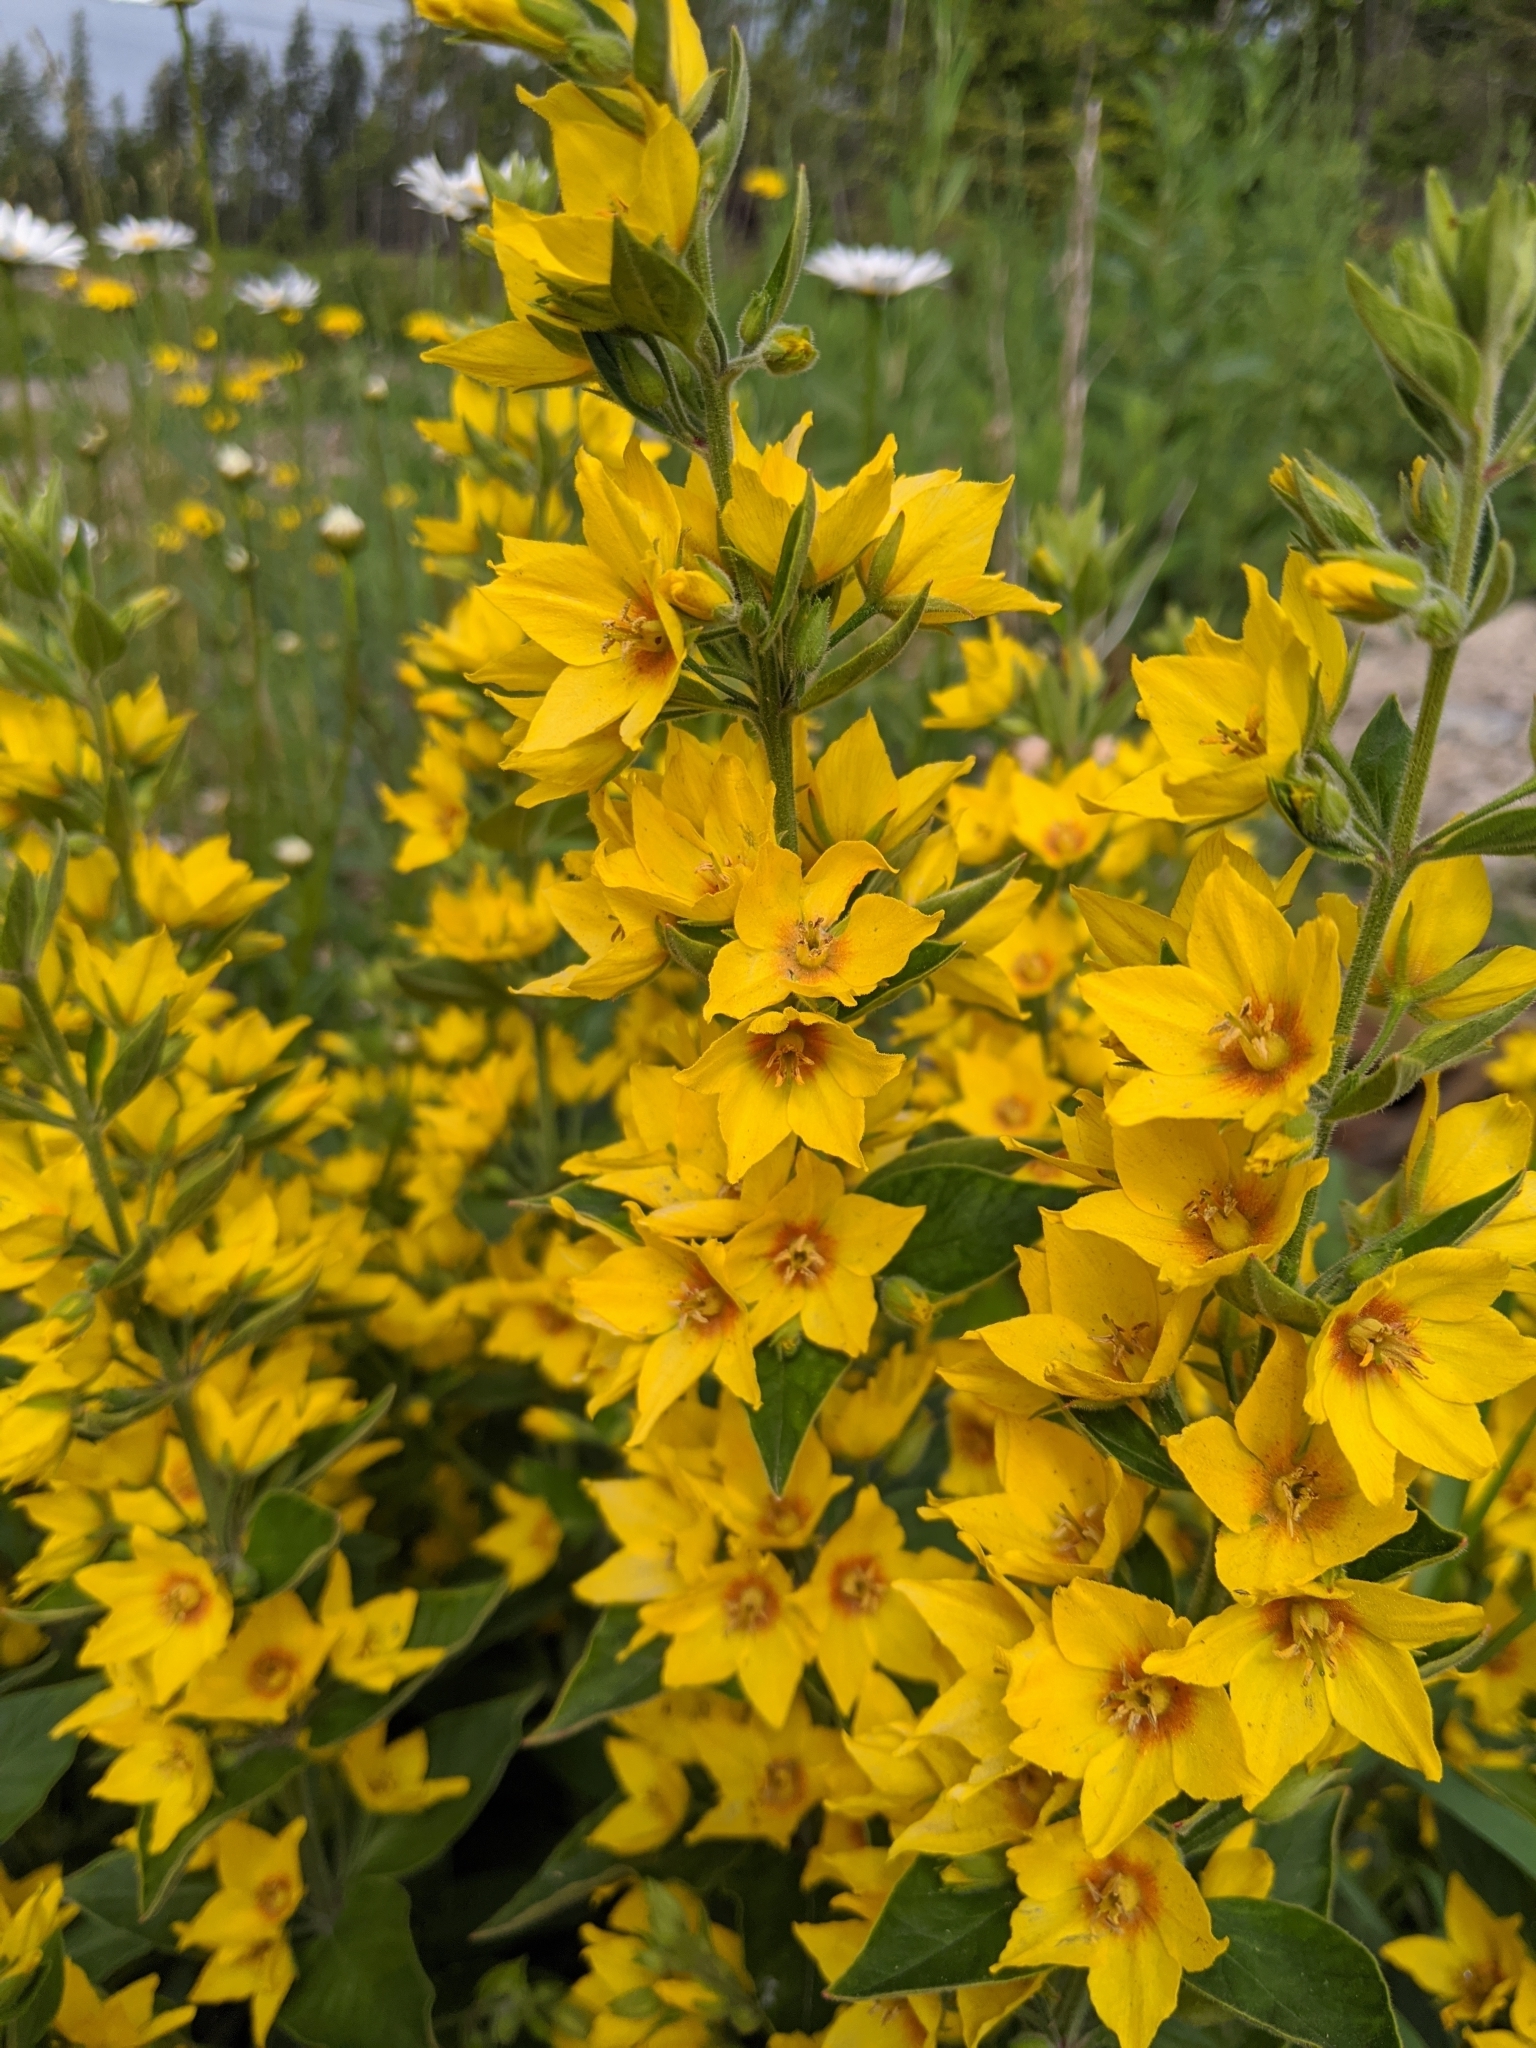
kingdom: Plantae
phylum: Tracheophyta
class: Magnoliopsida
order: Ericales
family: Primulaceae
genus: Lysimachia
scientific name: Lysimachia punctata
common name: Dotted loosestrife
